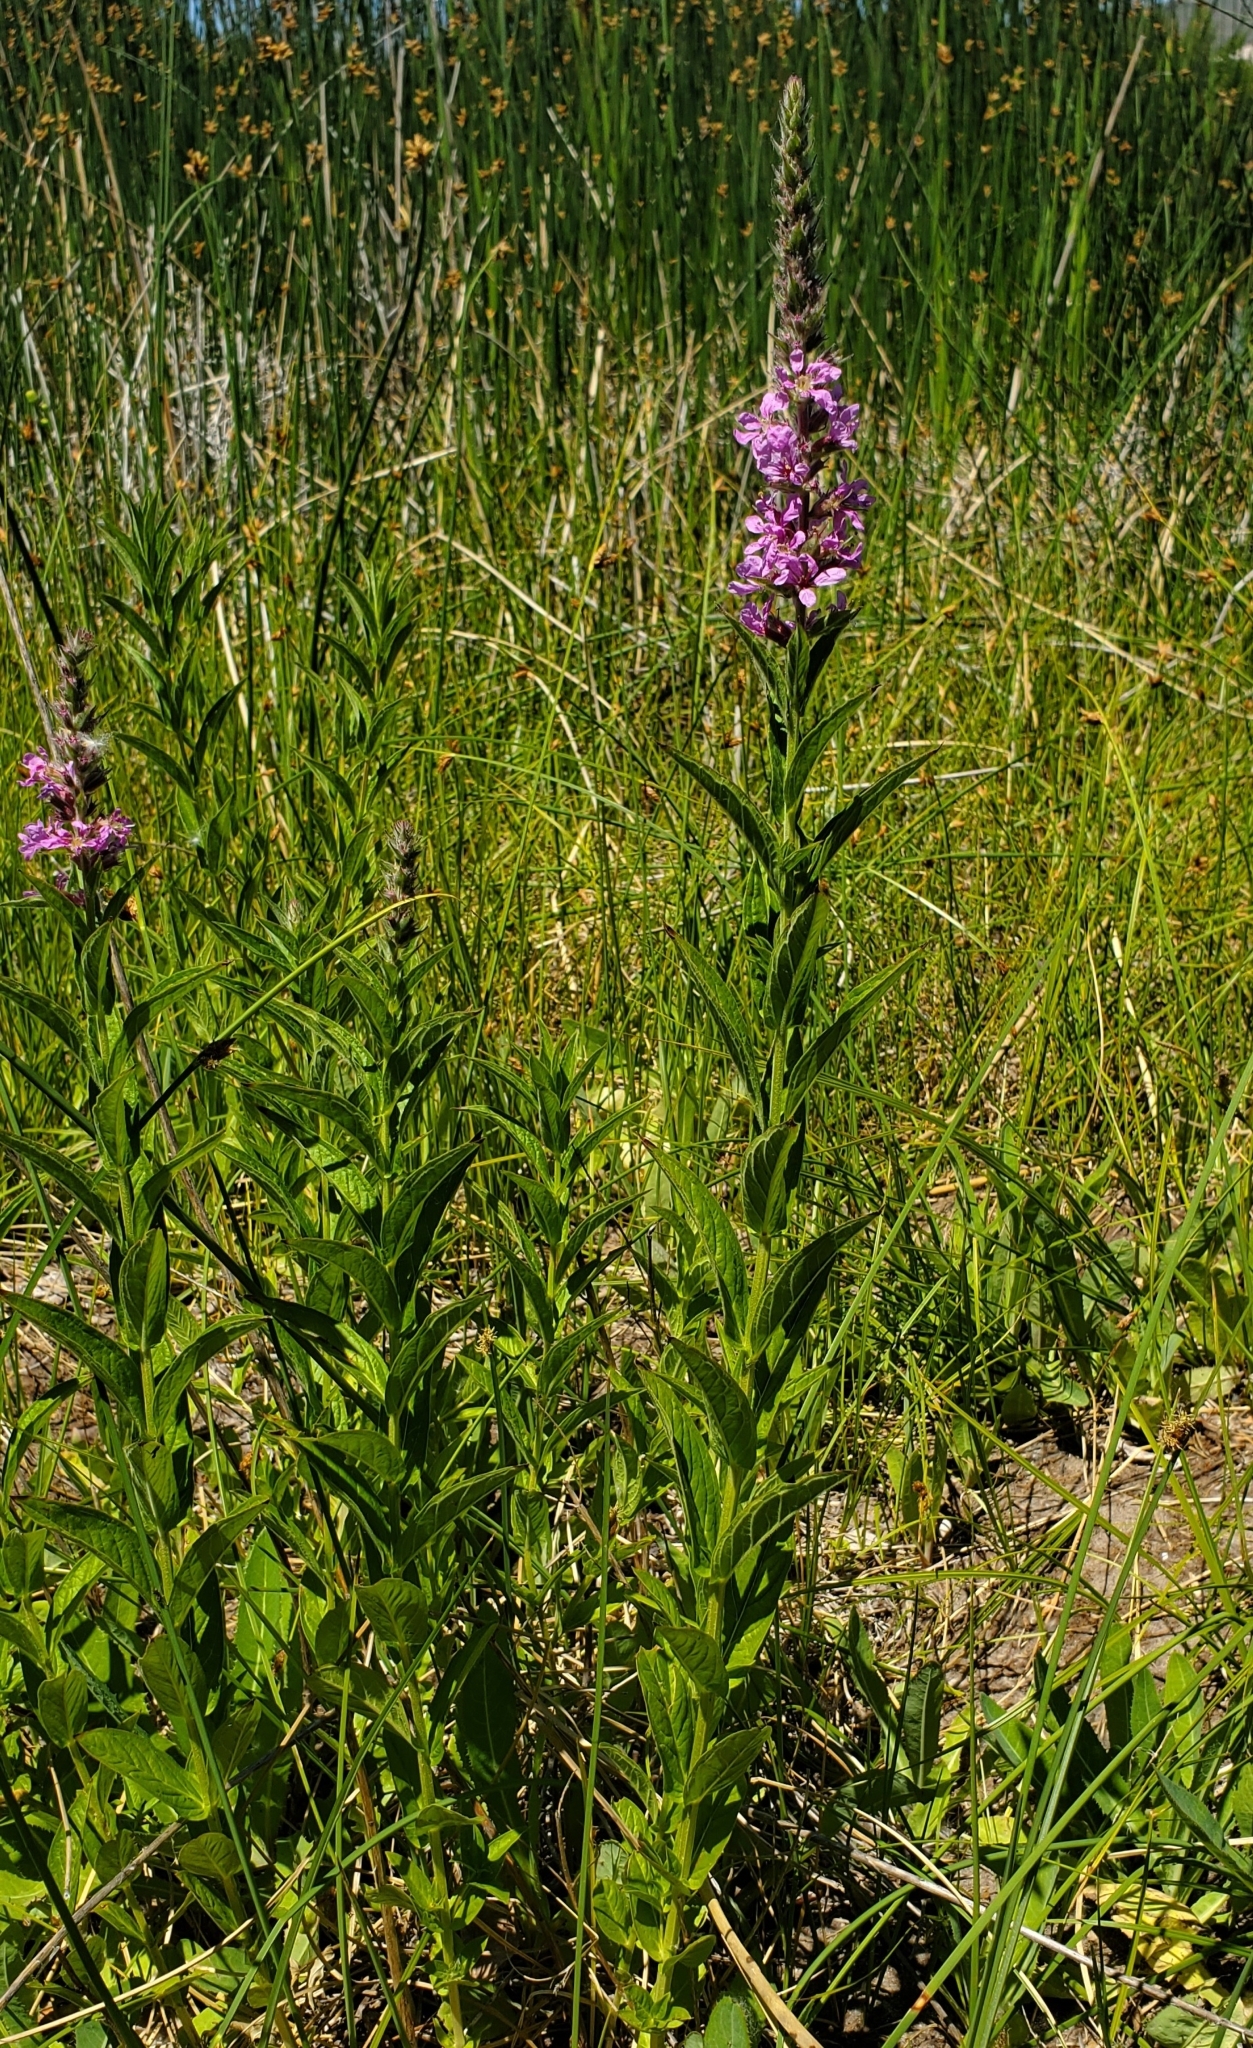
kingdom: Plantae
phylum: Tracheophyta
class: Magnoliopsida
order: Myrtales
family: Lythraceae
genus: Lythrum
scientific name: Lythrum salicaria
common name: Purple loosestrife
